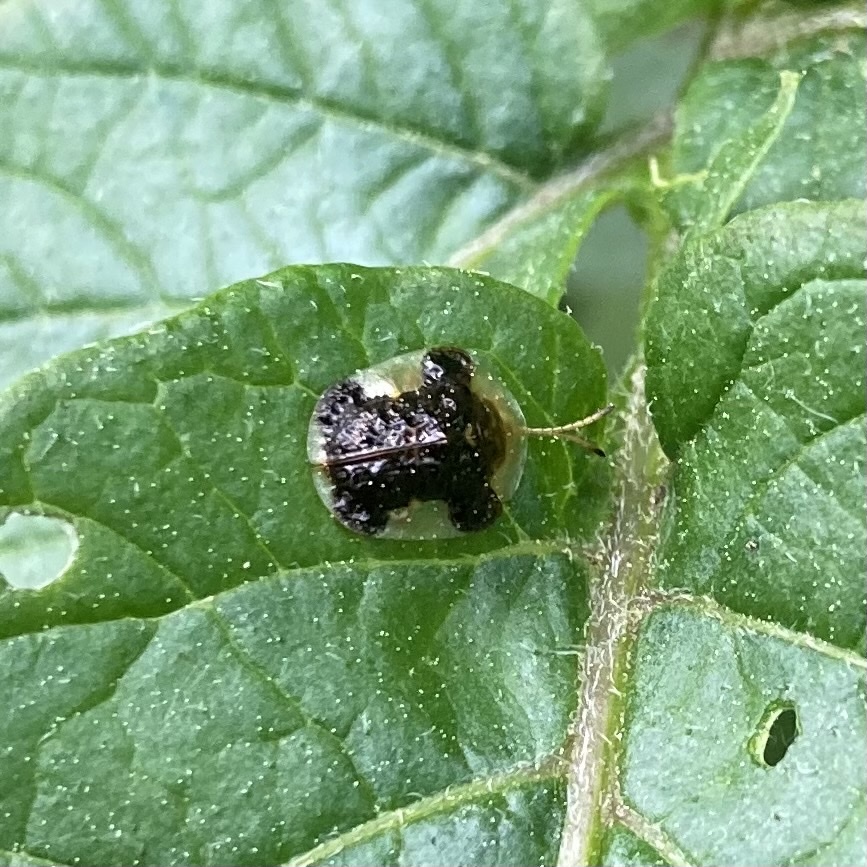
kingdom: Animalia
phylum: Arthropoda
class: Insecta
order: Coleoptera
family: Chrysomelidae
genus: Helocassis
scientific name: Helocassis clavata
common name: Clavate tortoise beetle
